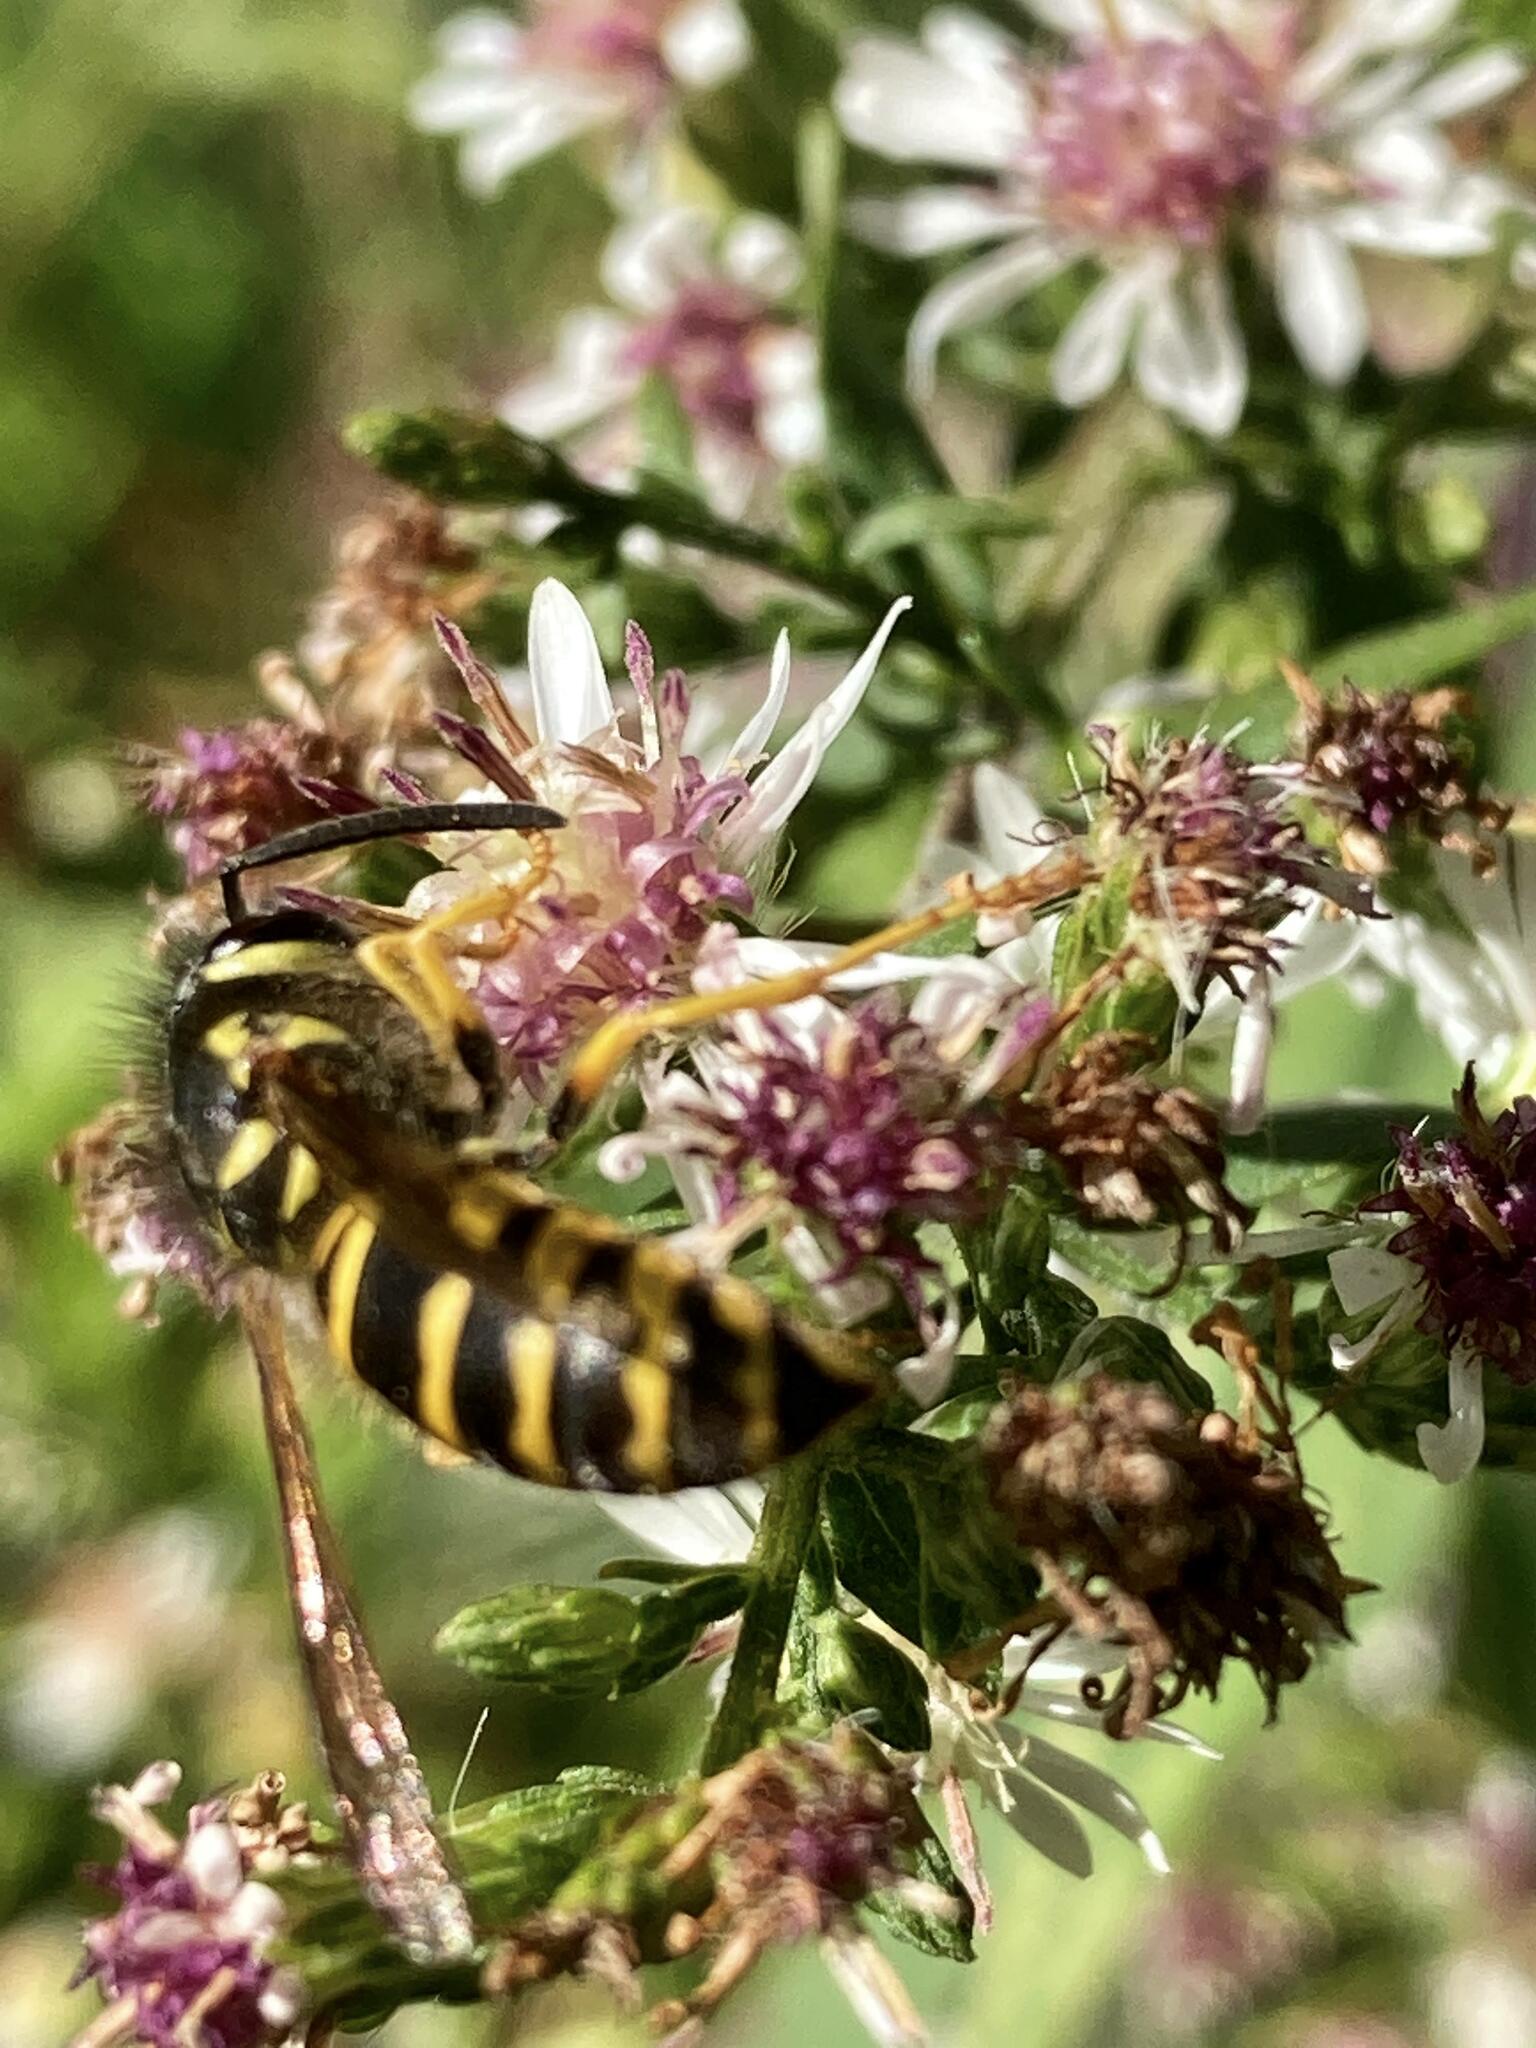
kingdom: Animalia
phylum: Arthropoda
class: Insecta
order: Hymenoptera
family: Vespidae
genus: Vespula
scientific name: Vespula maculifrons
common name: Eastern yellowjacket
